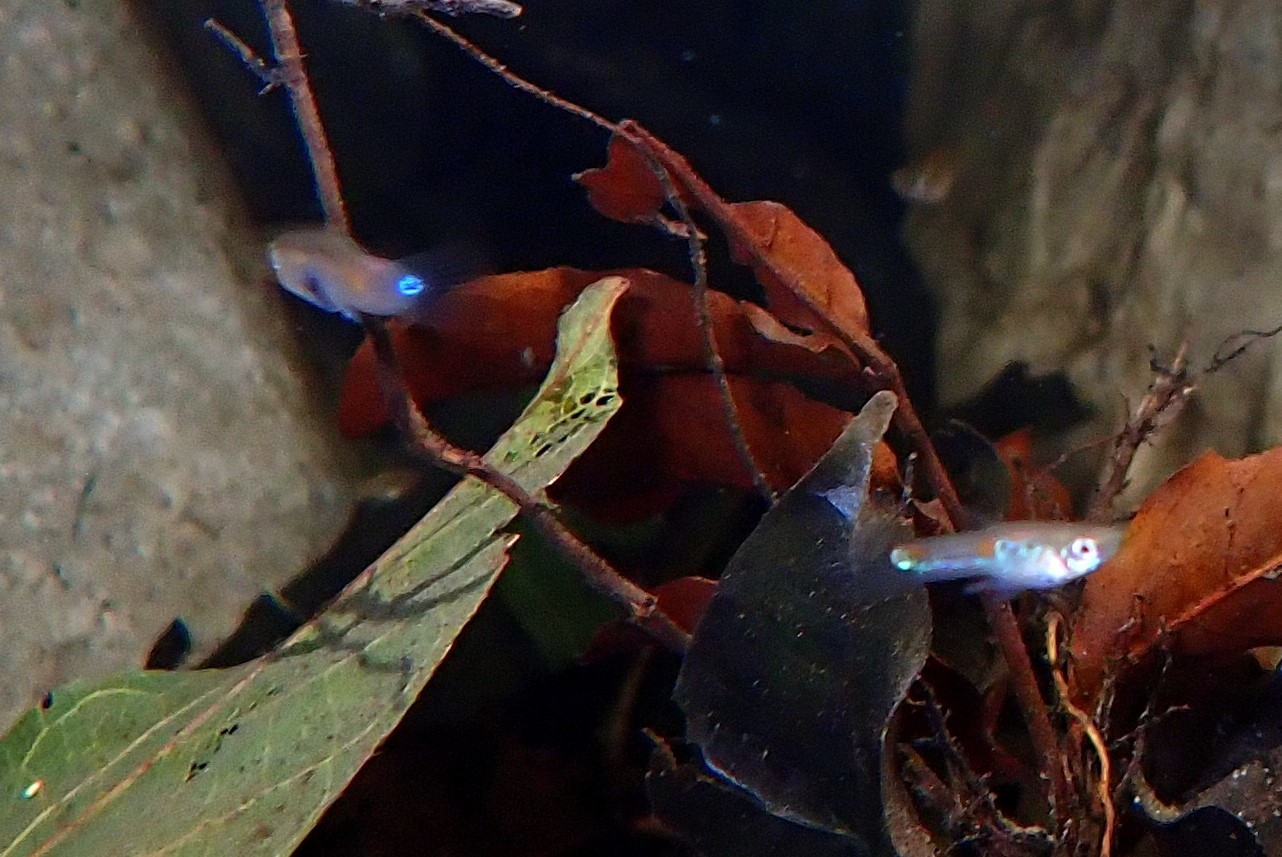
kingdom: Animalia
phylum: Chordata
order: Cyprinodontiformes
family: Poeciliidae
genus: Poecilia
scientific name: Poecilia reticulata
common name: Guppy
